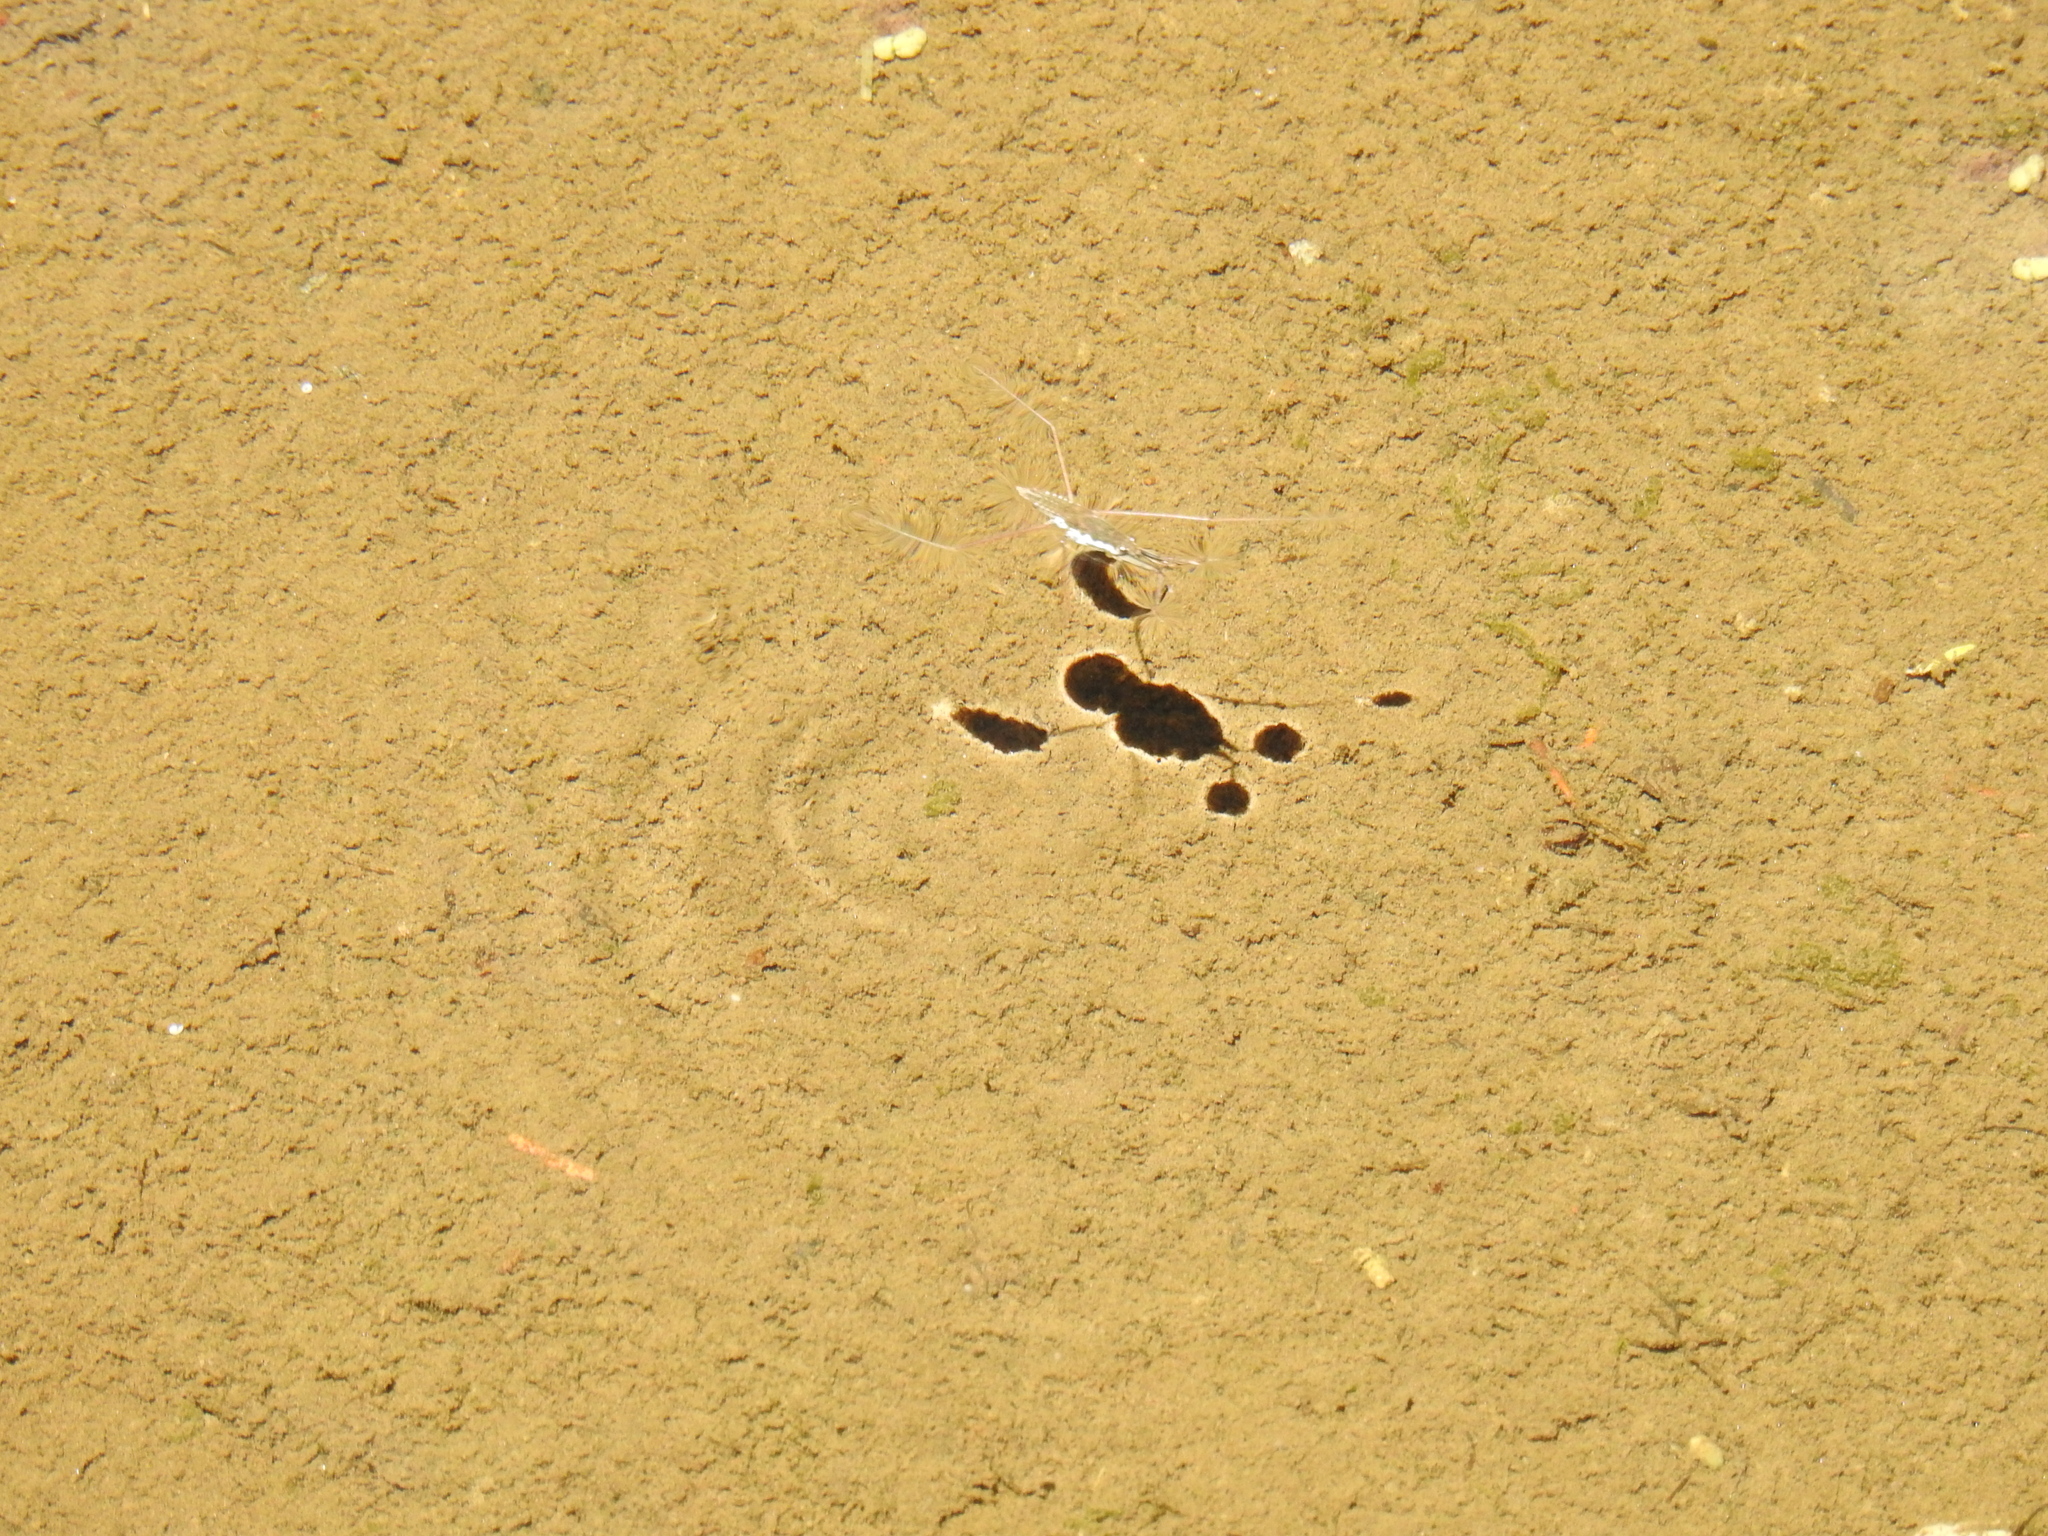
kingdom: Animalia
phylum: Arthropoda
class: Insecta
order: Hemiptera
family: Gerridae
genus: Aquarius
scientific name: Aquarius remigis
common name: Common water strider
